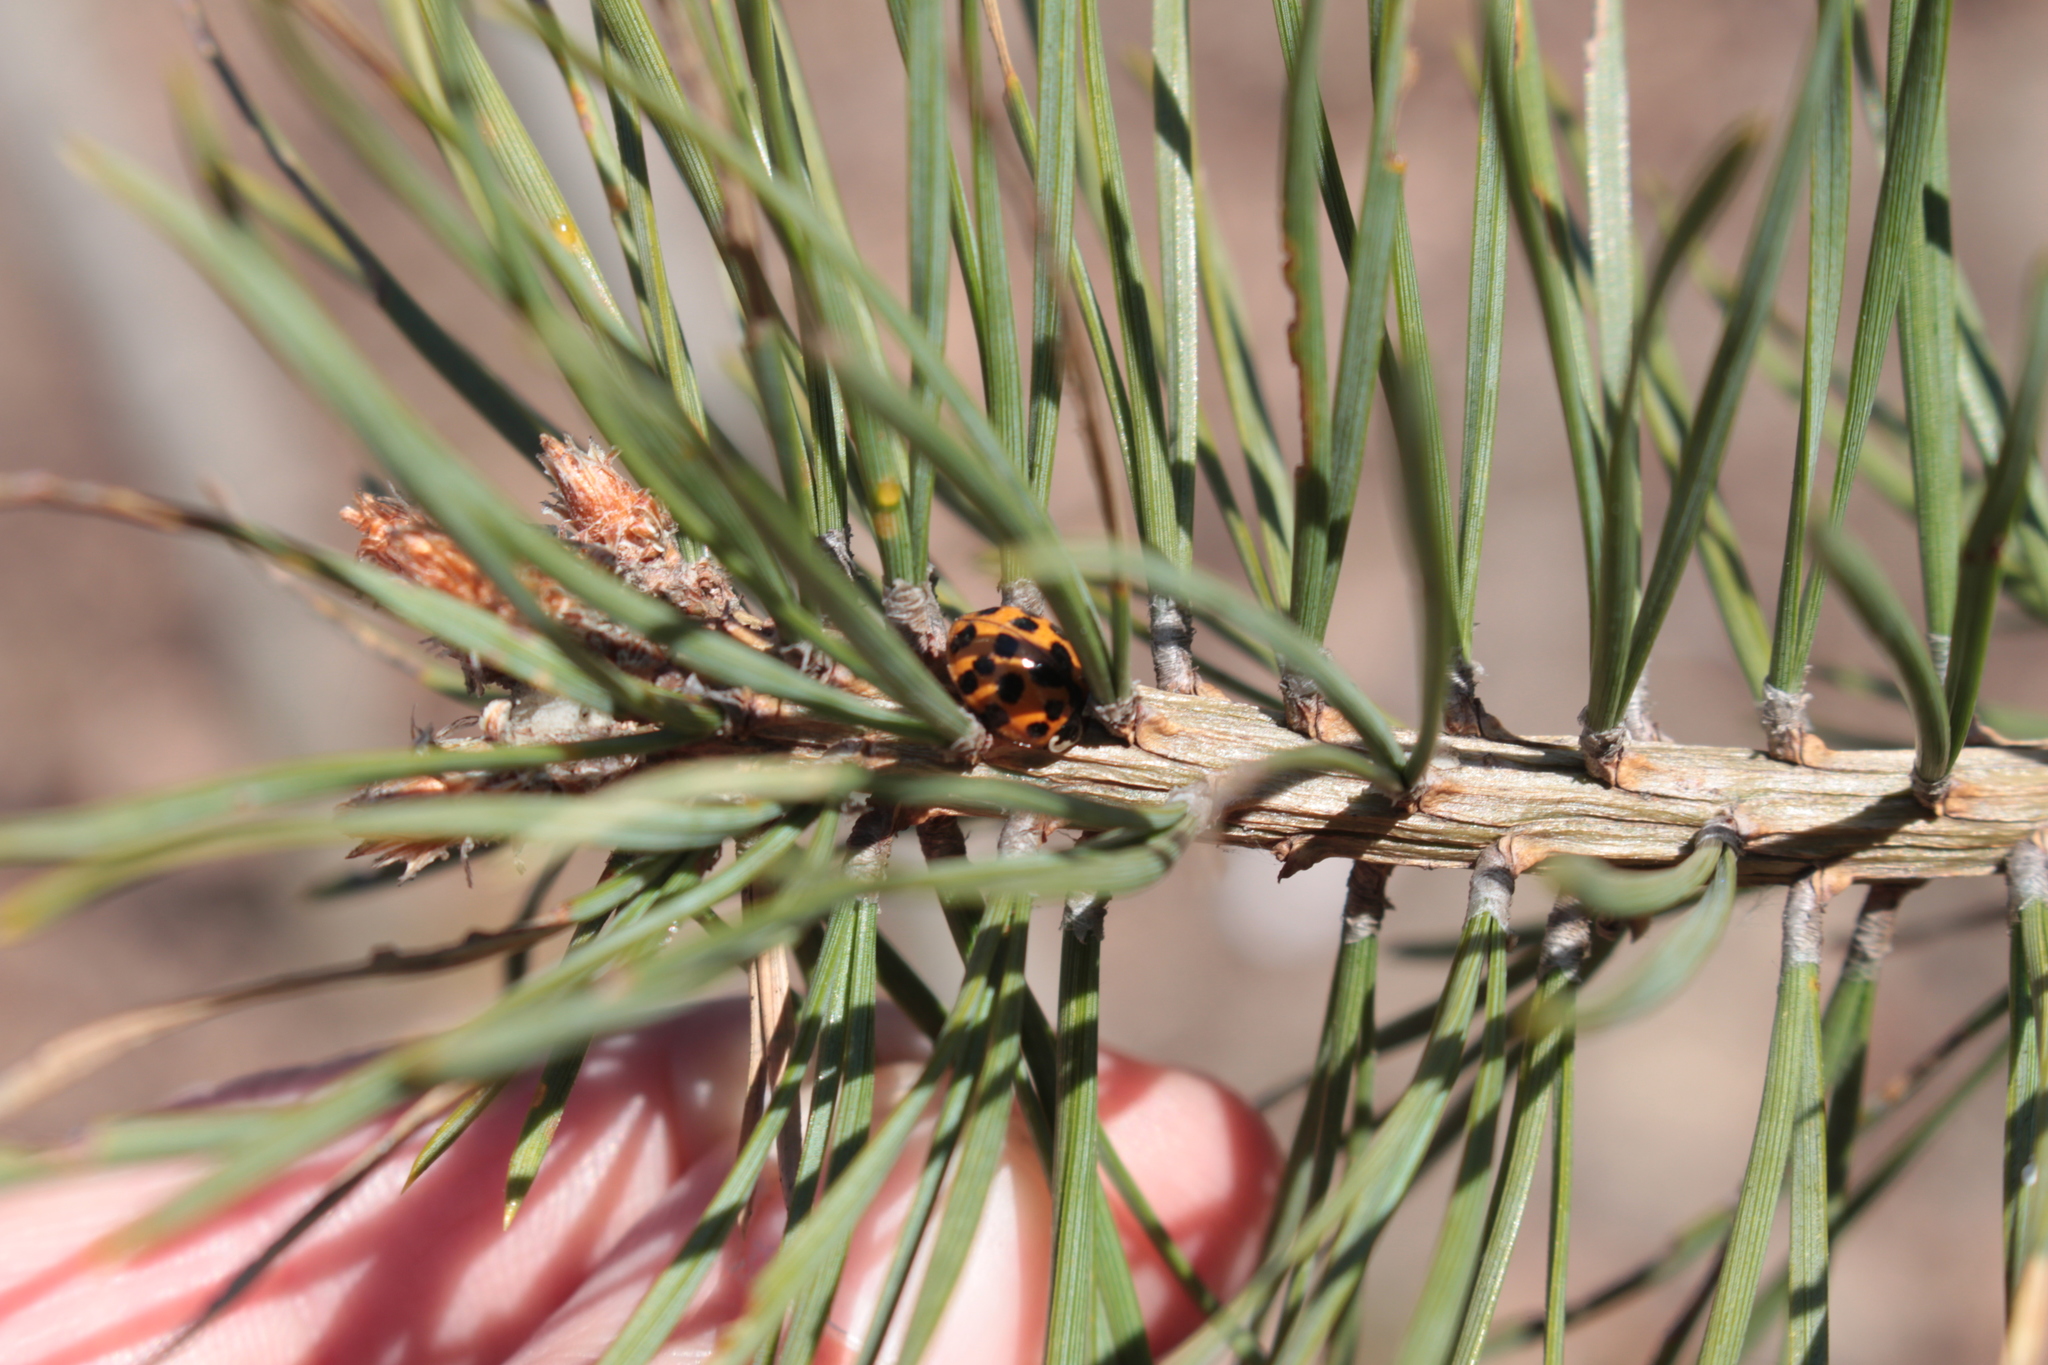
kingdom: Animalia
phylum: Arthropoda
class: Insecta
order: Coleoptera
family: Coccinellidae
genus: Harmonia
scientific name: Harmonia axyridis
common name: Harlequin ladybird
